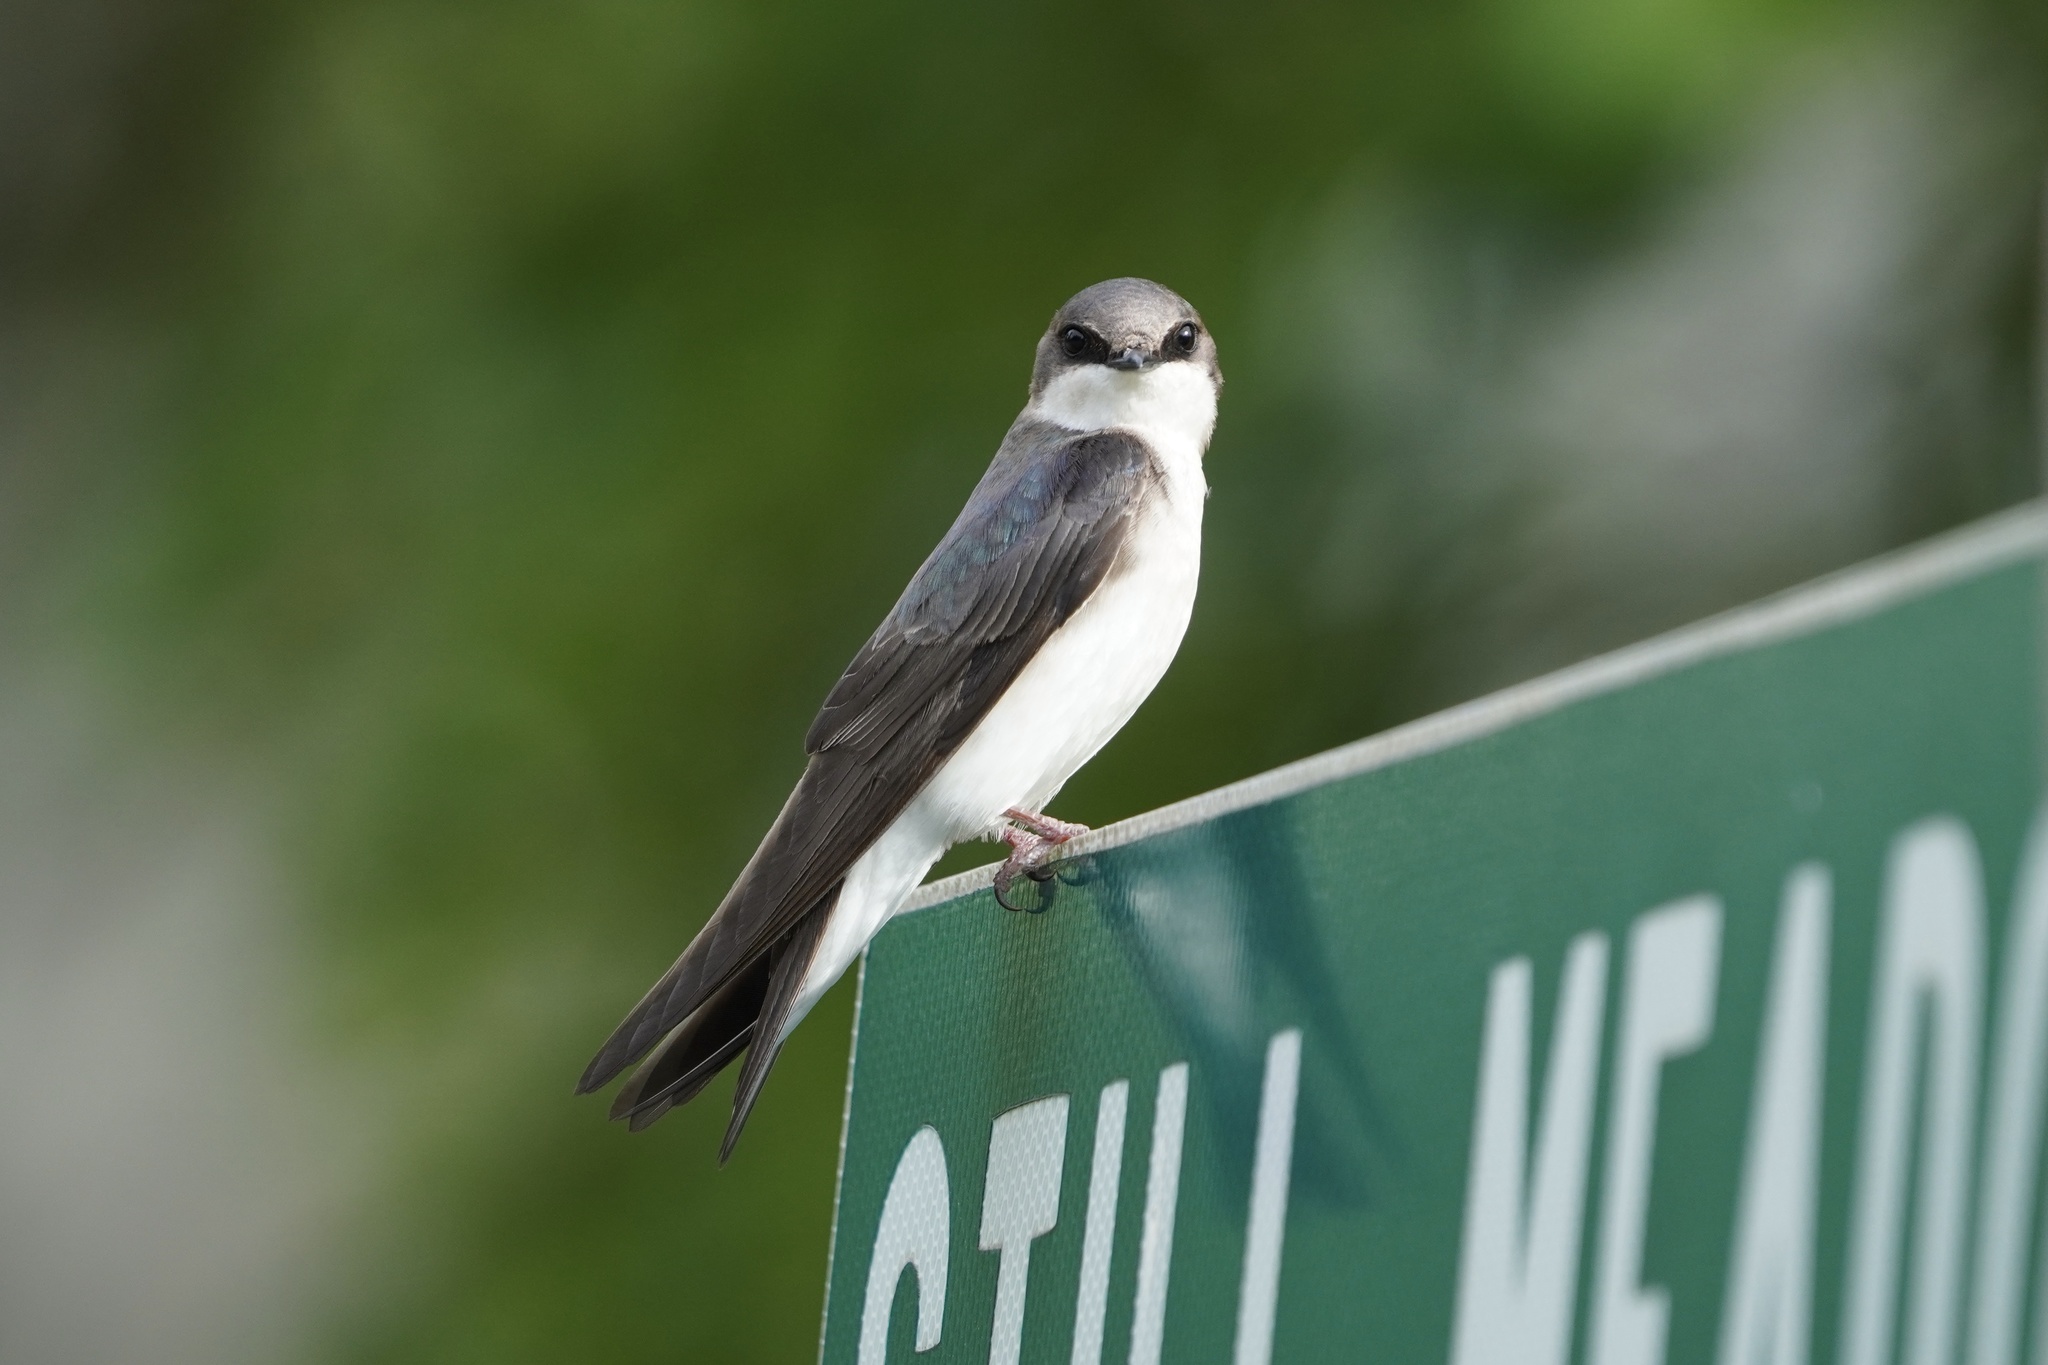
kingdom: Animalia
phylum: Chordata
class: Aves
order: Passeriformes
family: Hirundinidae
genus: Tachycineta
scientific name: Tachycineta bicolor
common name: Tree swallow
